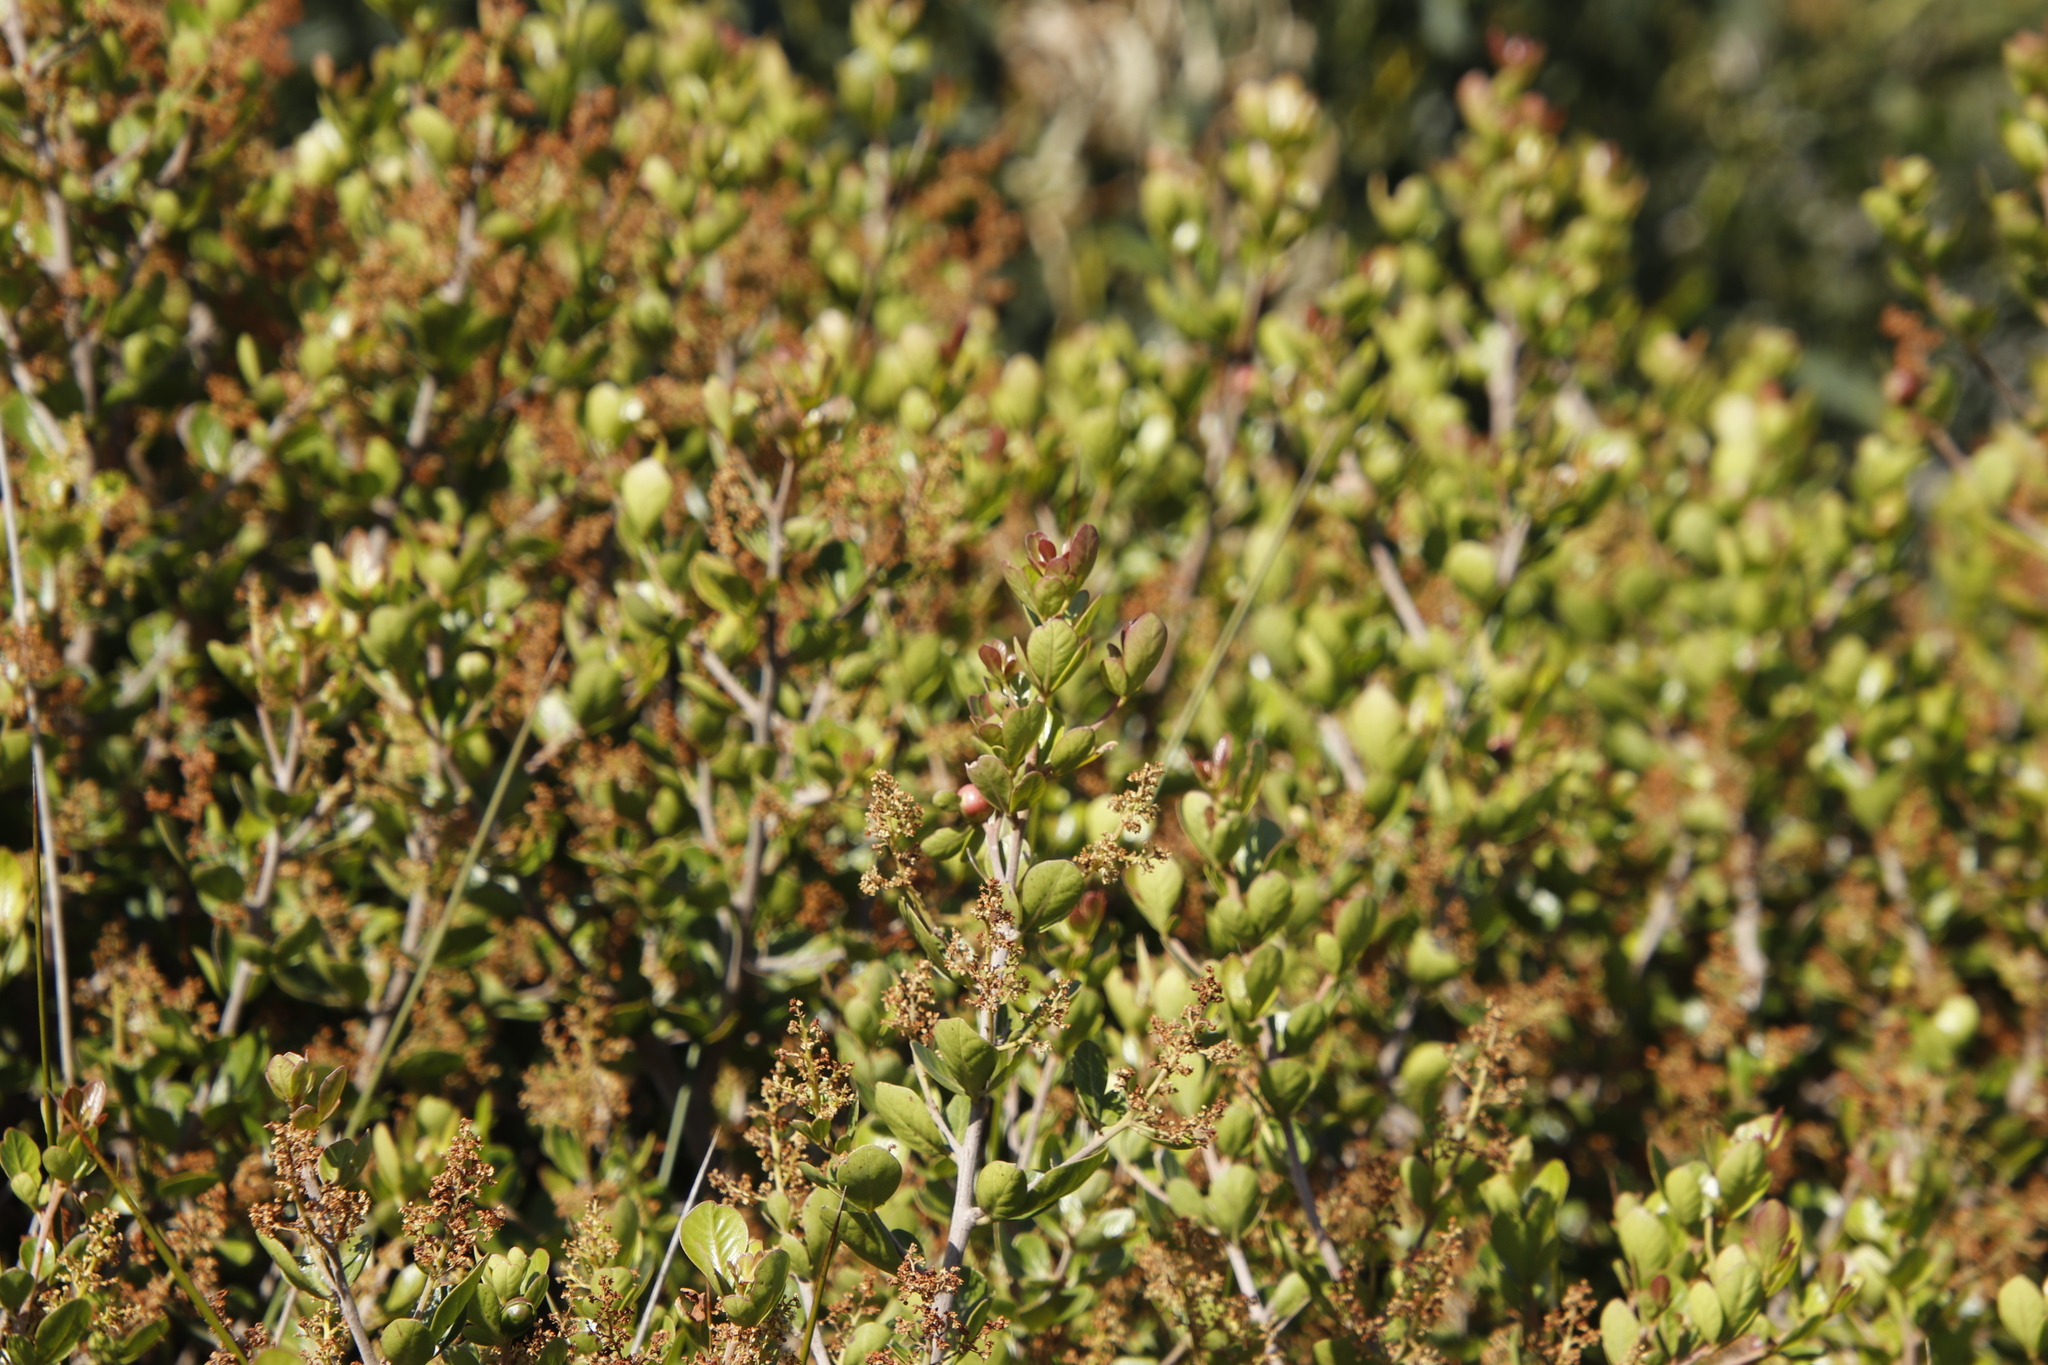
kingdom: Plantae
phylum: Tracheophyta
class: Magnoliopsida
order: Sapindales
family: Anacardiaceae
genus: Searsia
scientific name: Searsia lucida
